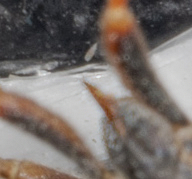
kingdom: Animalia
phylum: Arthropoda
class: Insecta
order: Hemiptera
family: Coreidae
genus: Leptoglossus
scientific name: Leptoglossus clypealis
